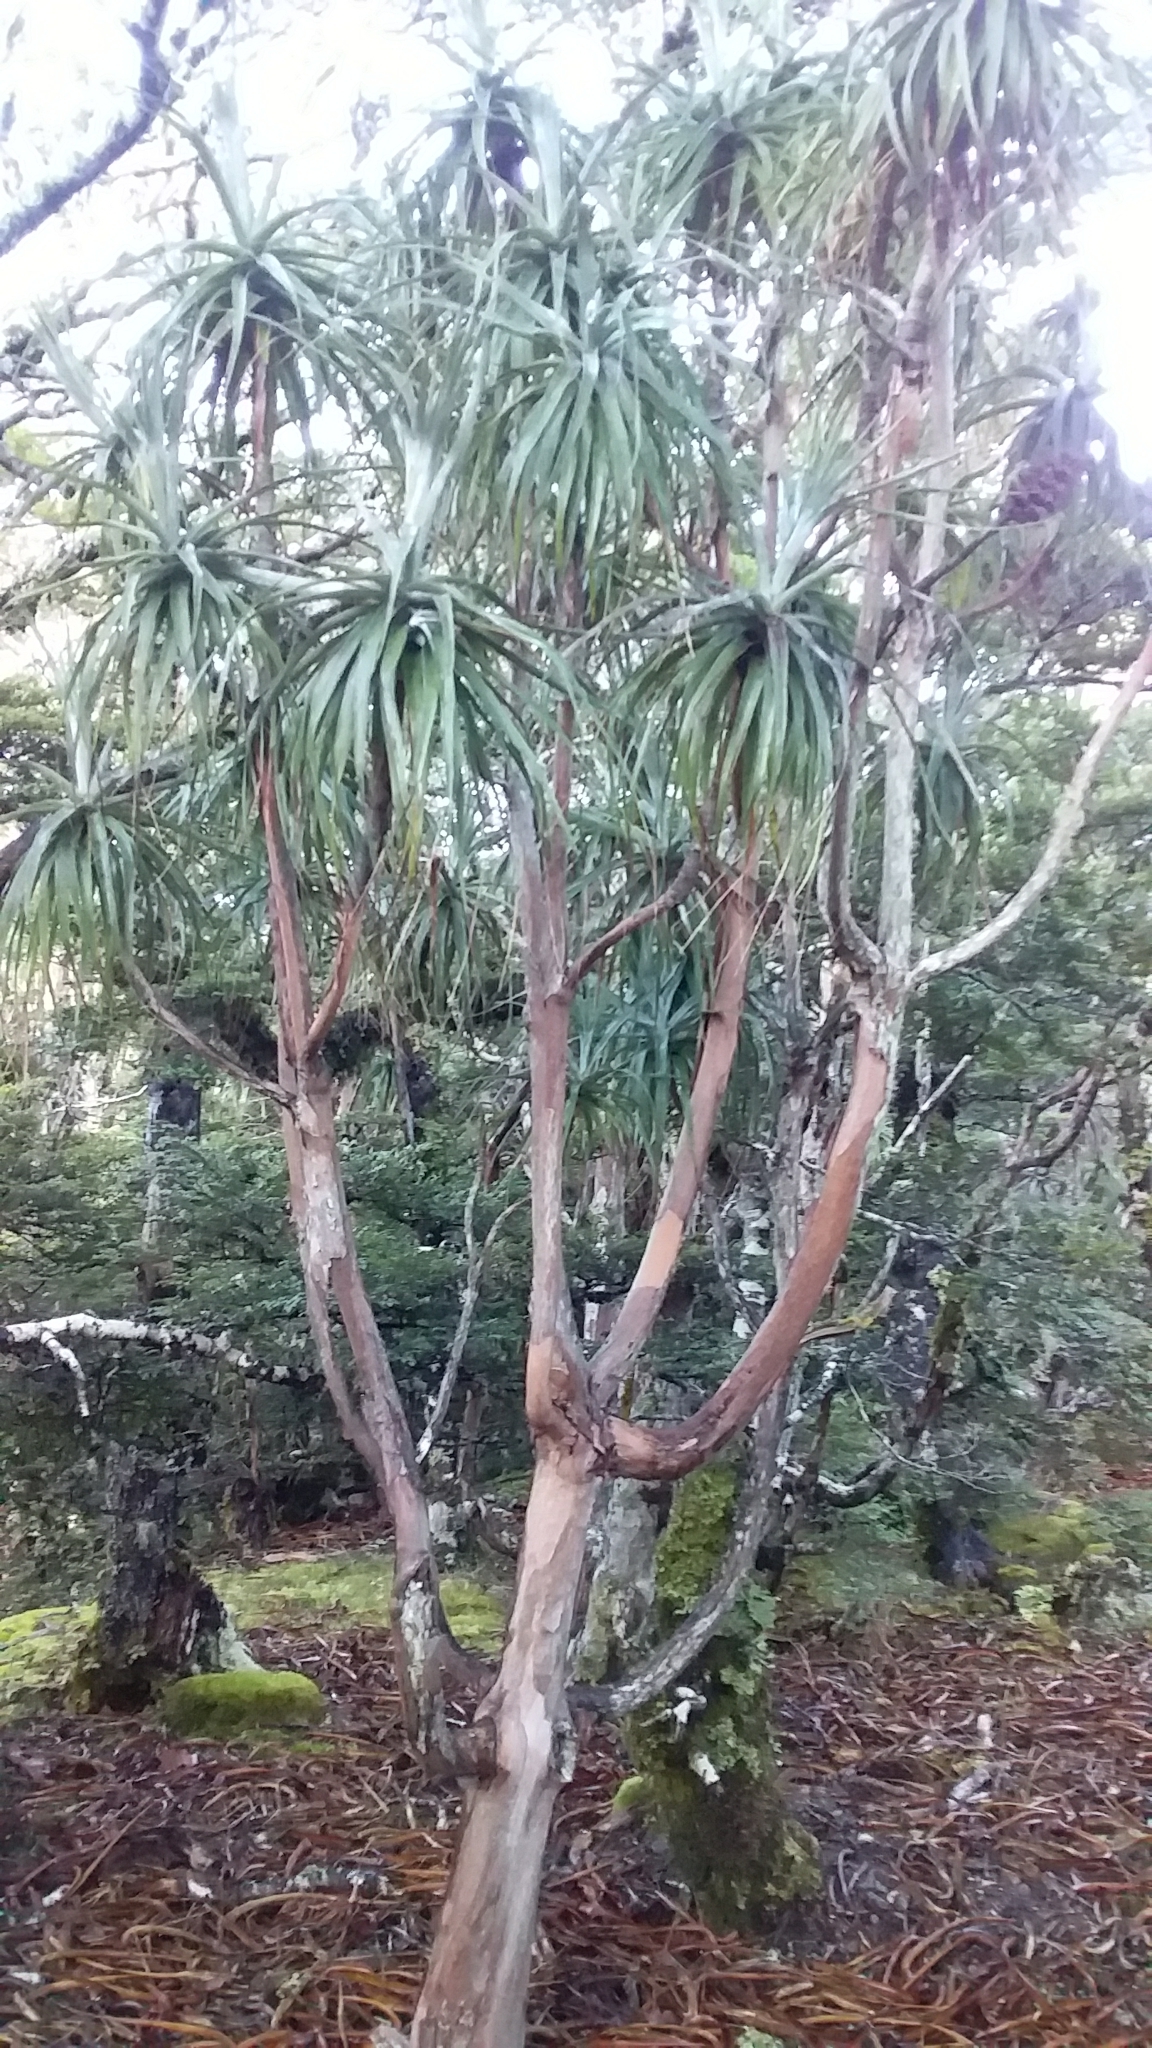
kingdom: Plantae
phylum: Tracheophyta
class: Magnoliopsida
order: Ericales
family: Ericaceae
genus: Dracophyllum
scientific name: Dracophyllum traversii
